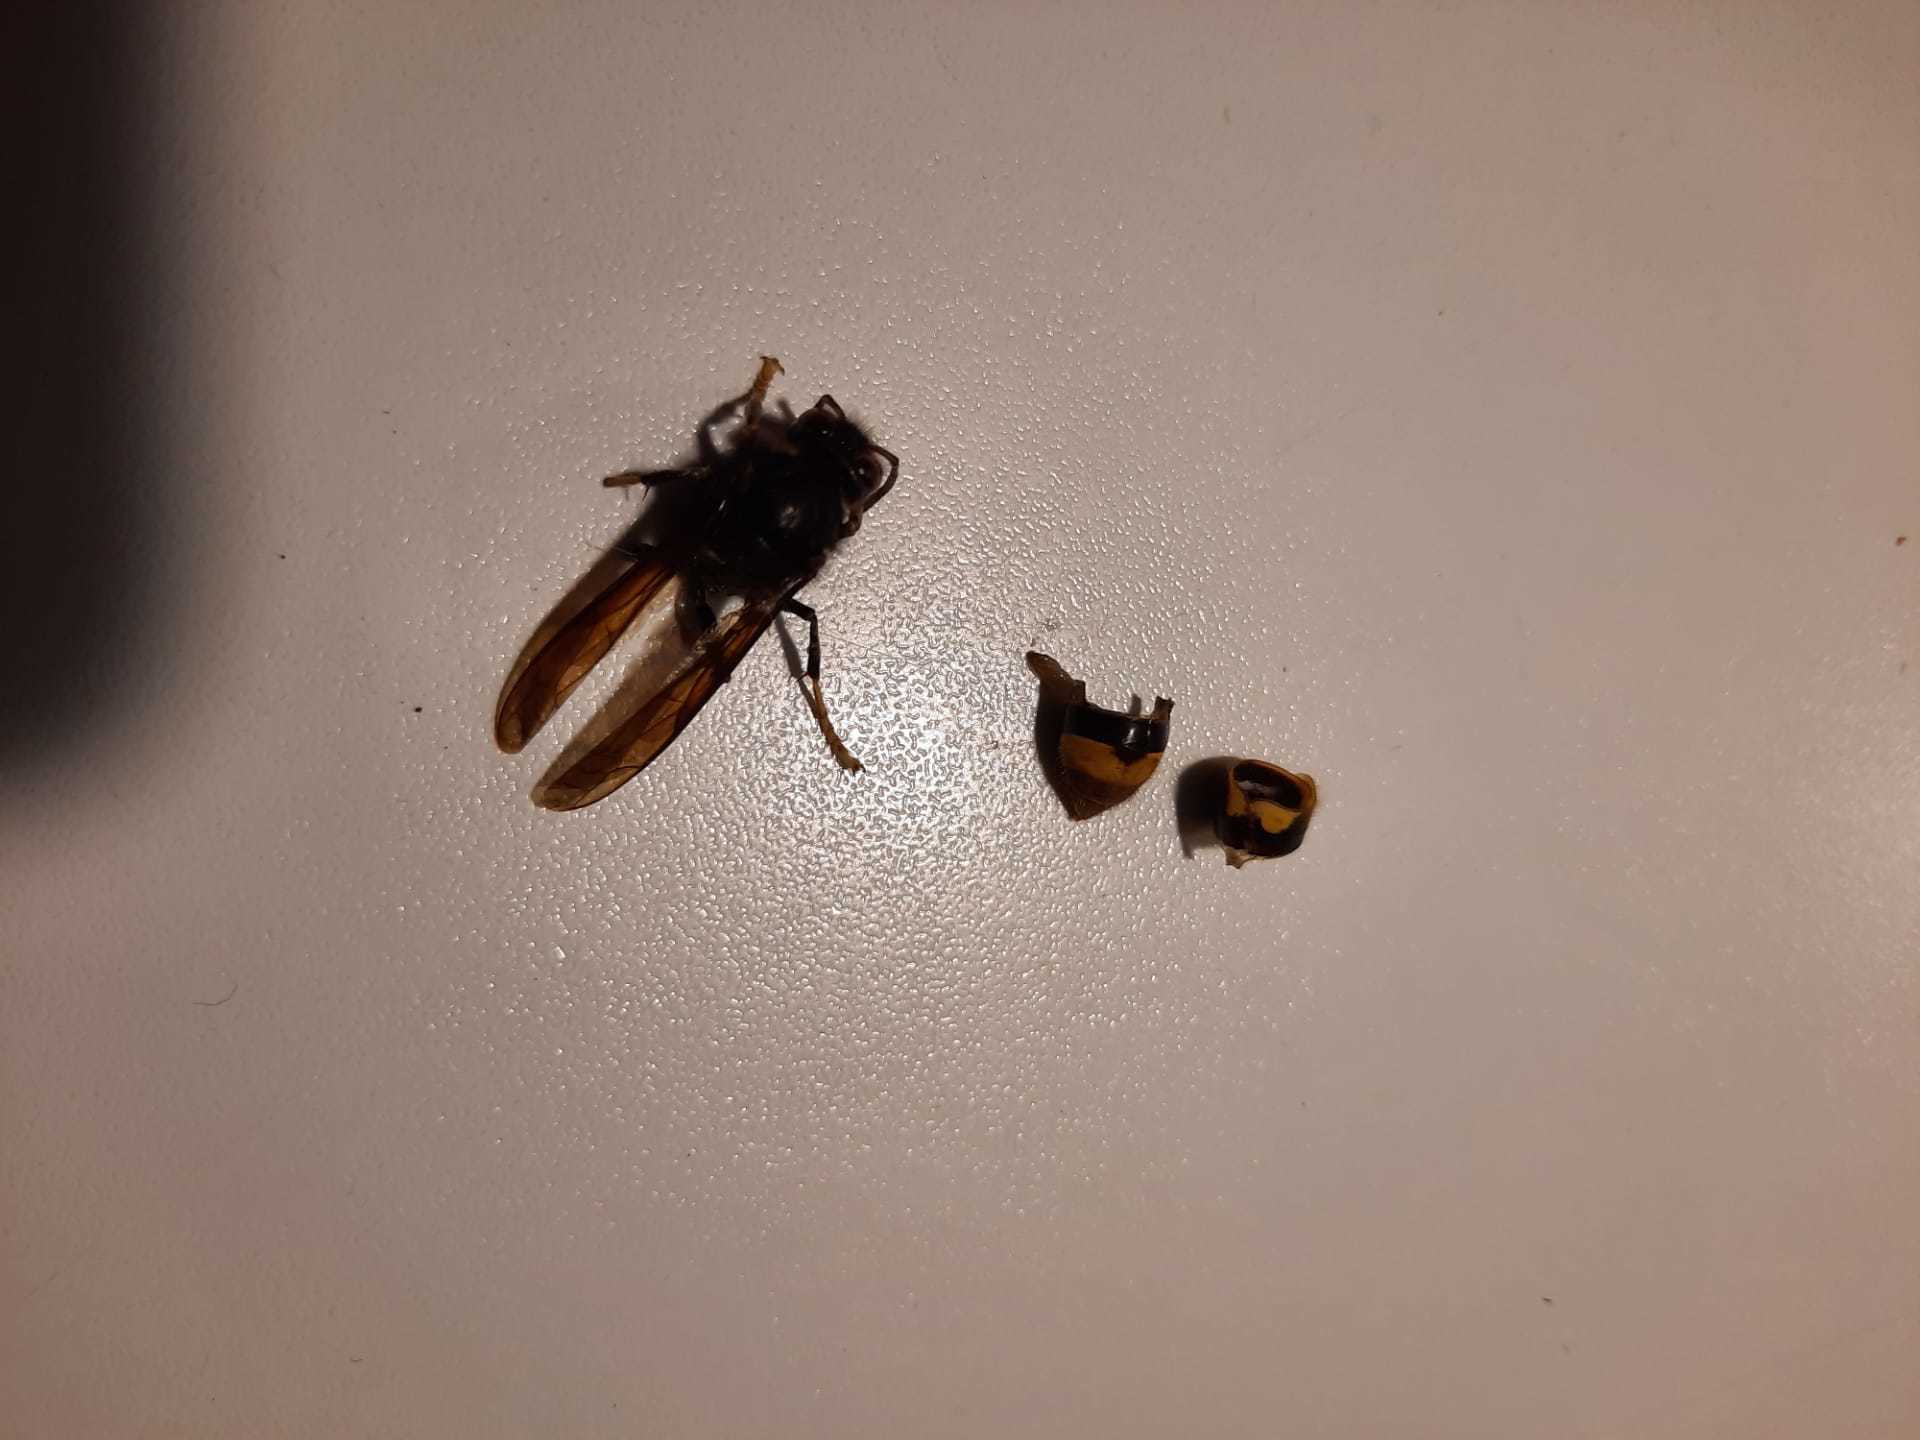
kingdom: Animalia
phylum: Arthropoda
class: Insecta
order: Hymenoptera
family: Vespidae
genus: Vespa
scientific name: Vespa velutina
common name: Asian hornet
